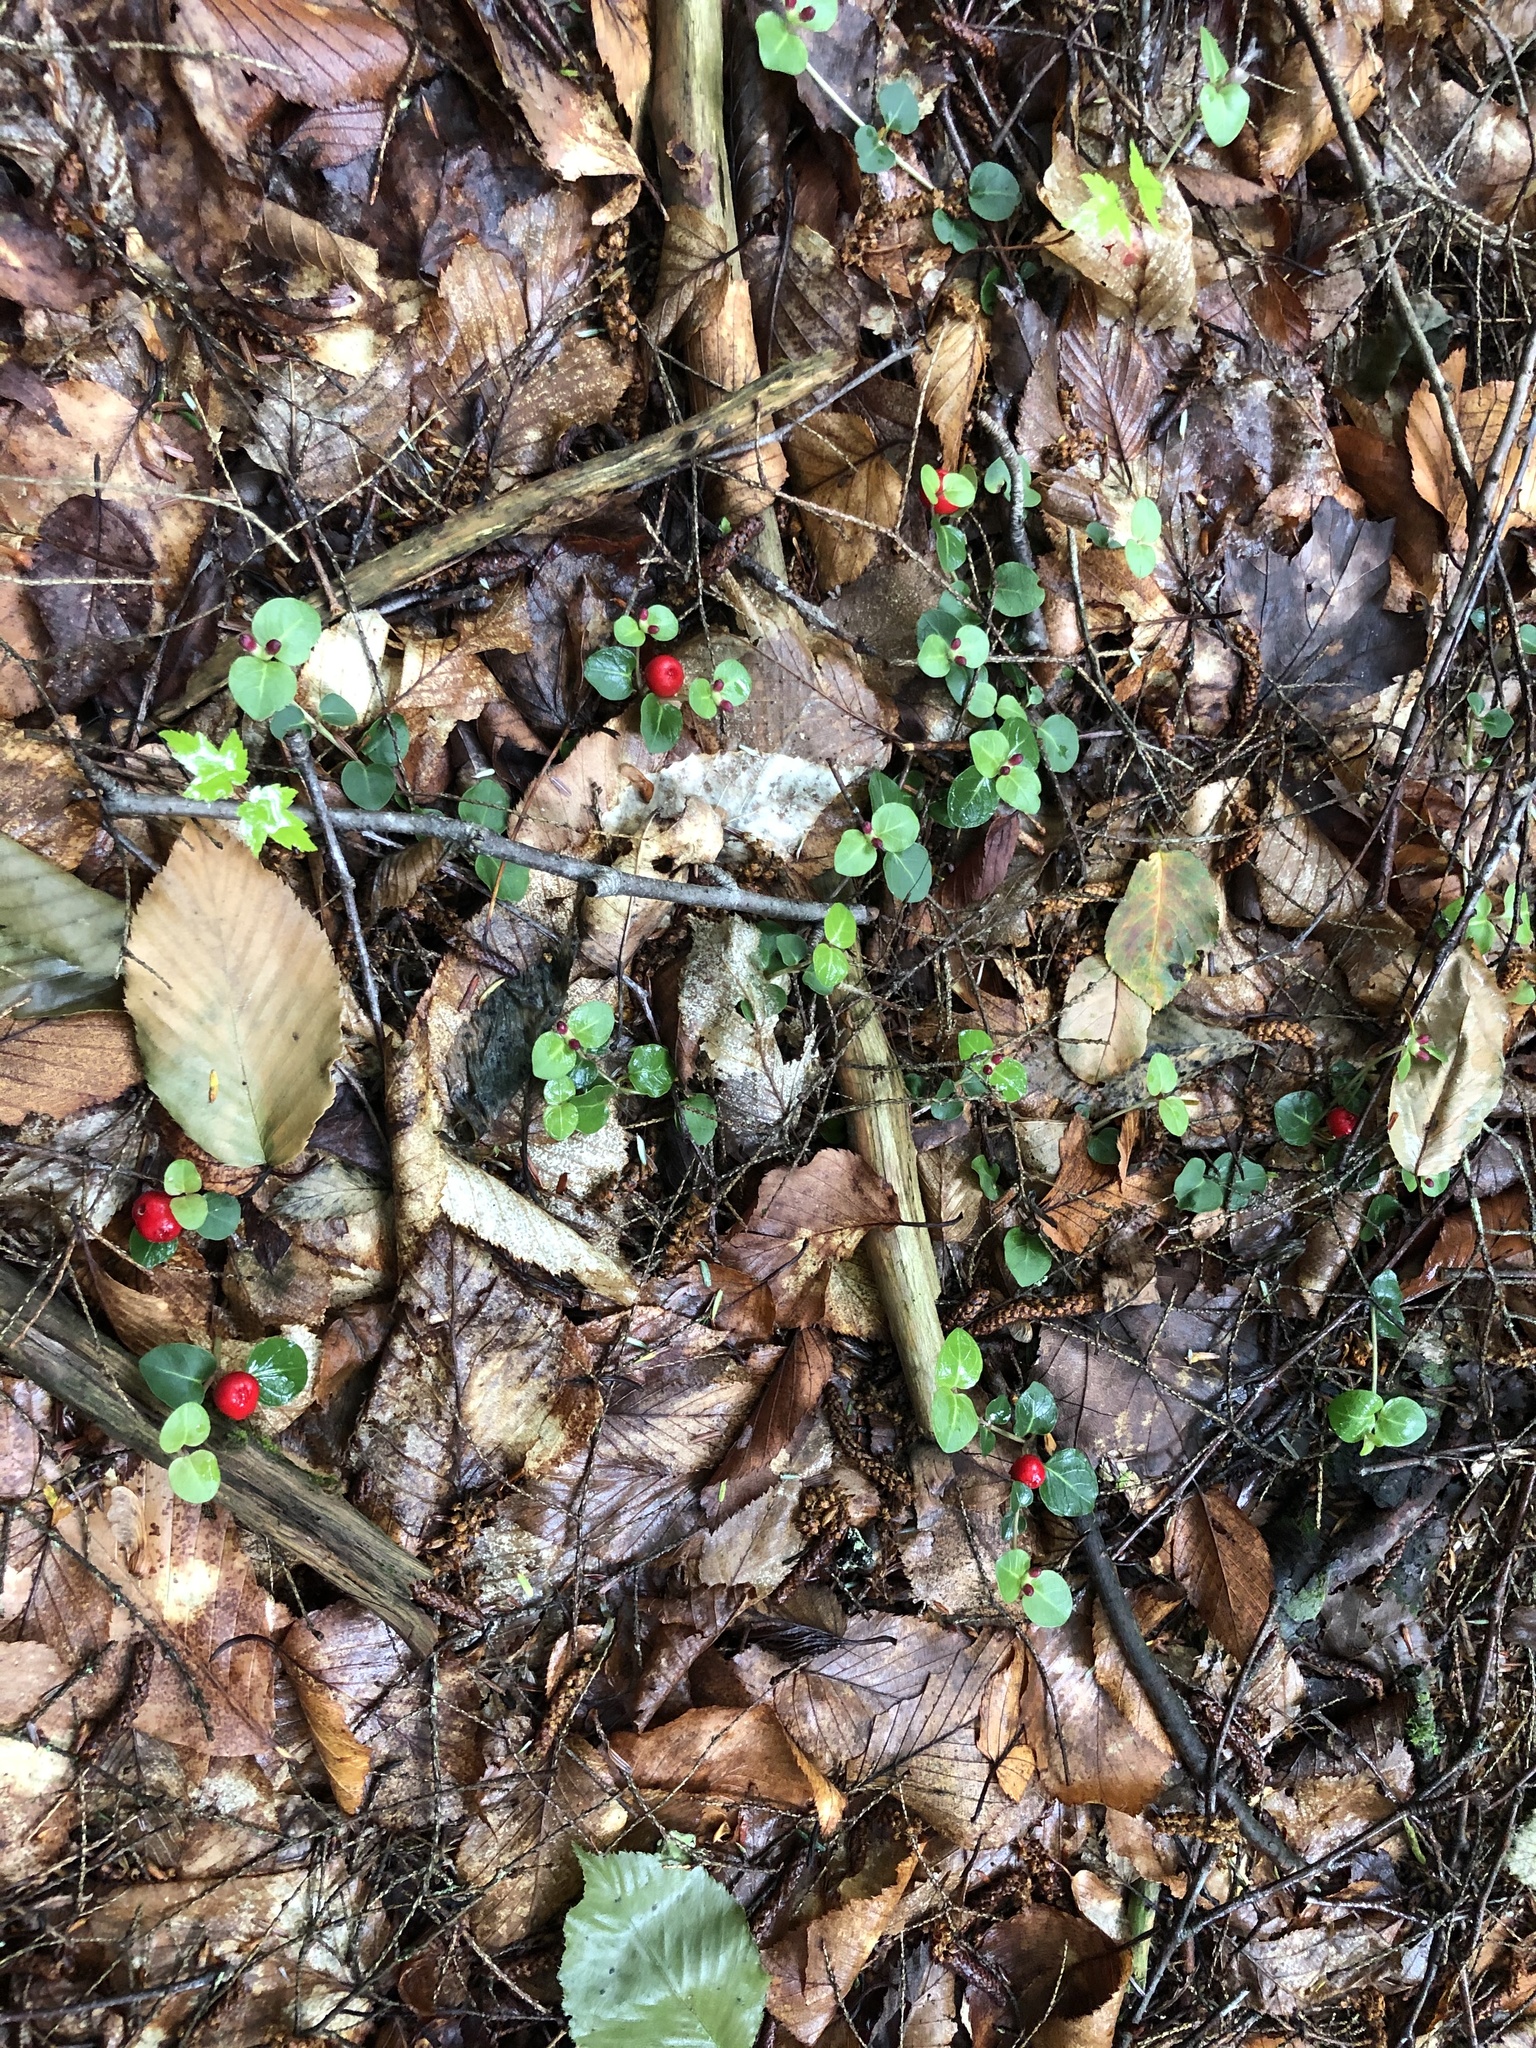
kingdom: Plantae
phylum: Tracheophyta
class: Magnoliopsida
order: Gentianales
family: Rubiaceae
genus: Mitchella
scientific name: Mitchella repens
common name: Partridge-berry
